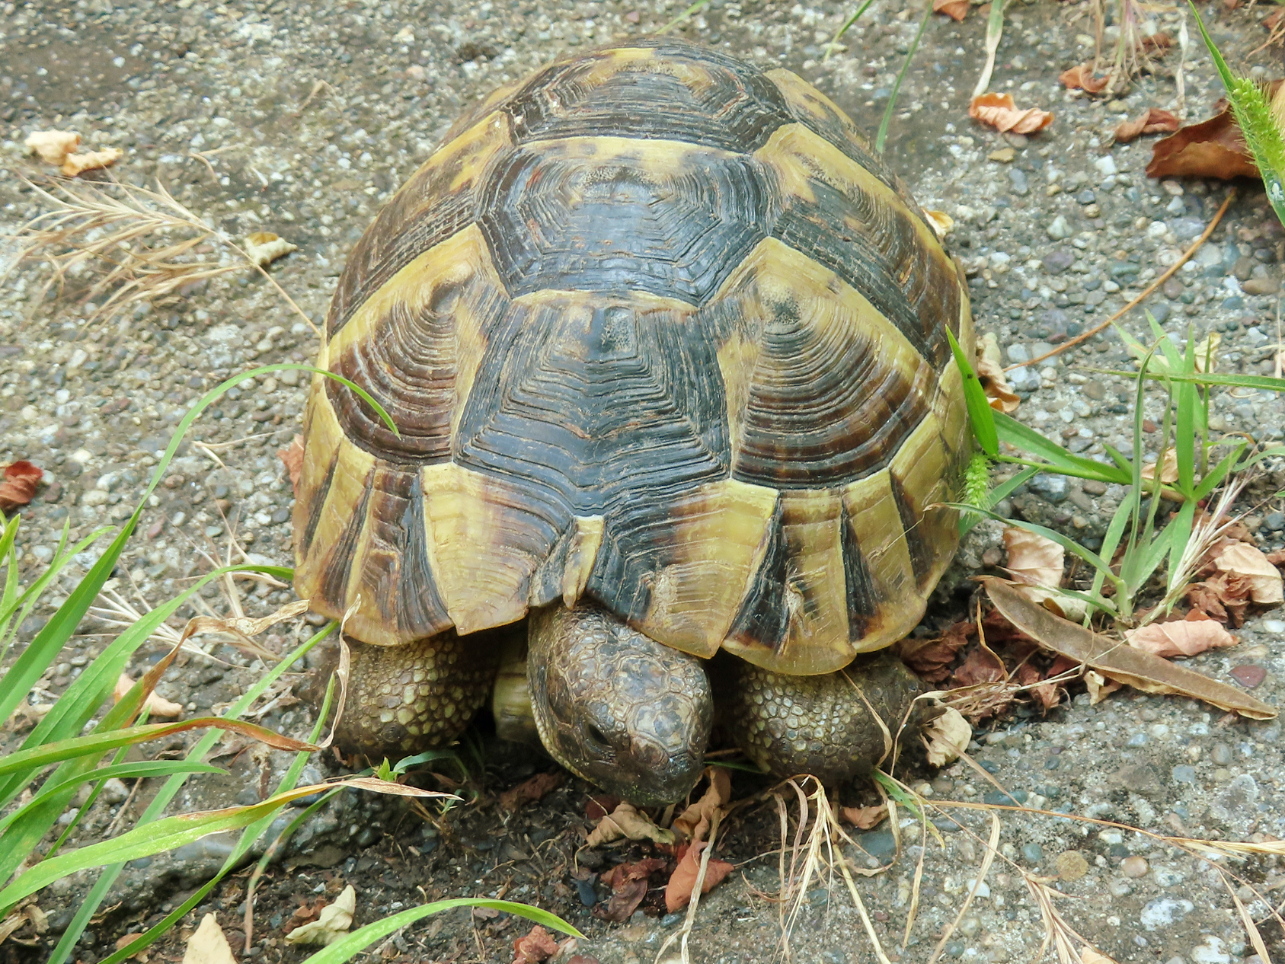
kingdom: Animalia
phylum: Chordata
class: Testudines
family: Testudinidae
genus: Testudo
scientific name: Testudo graeca
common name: Common tortoise
